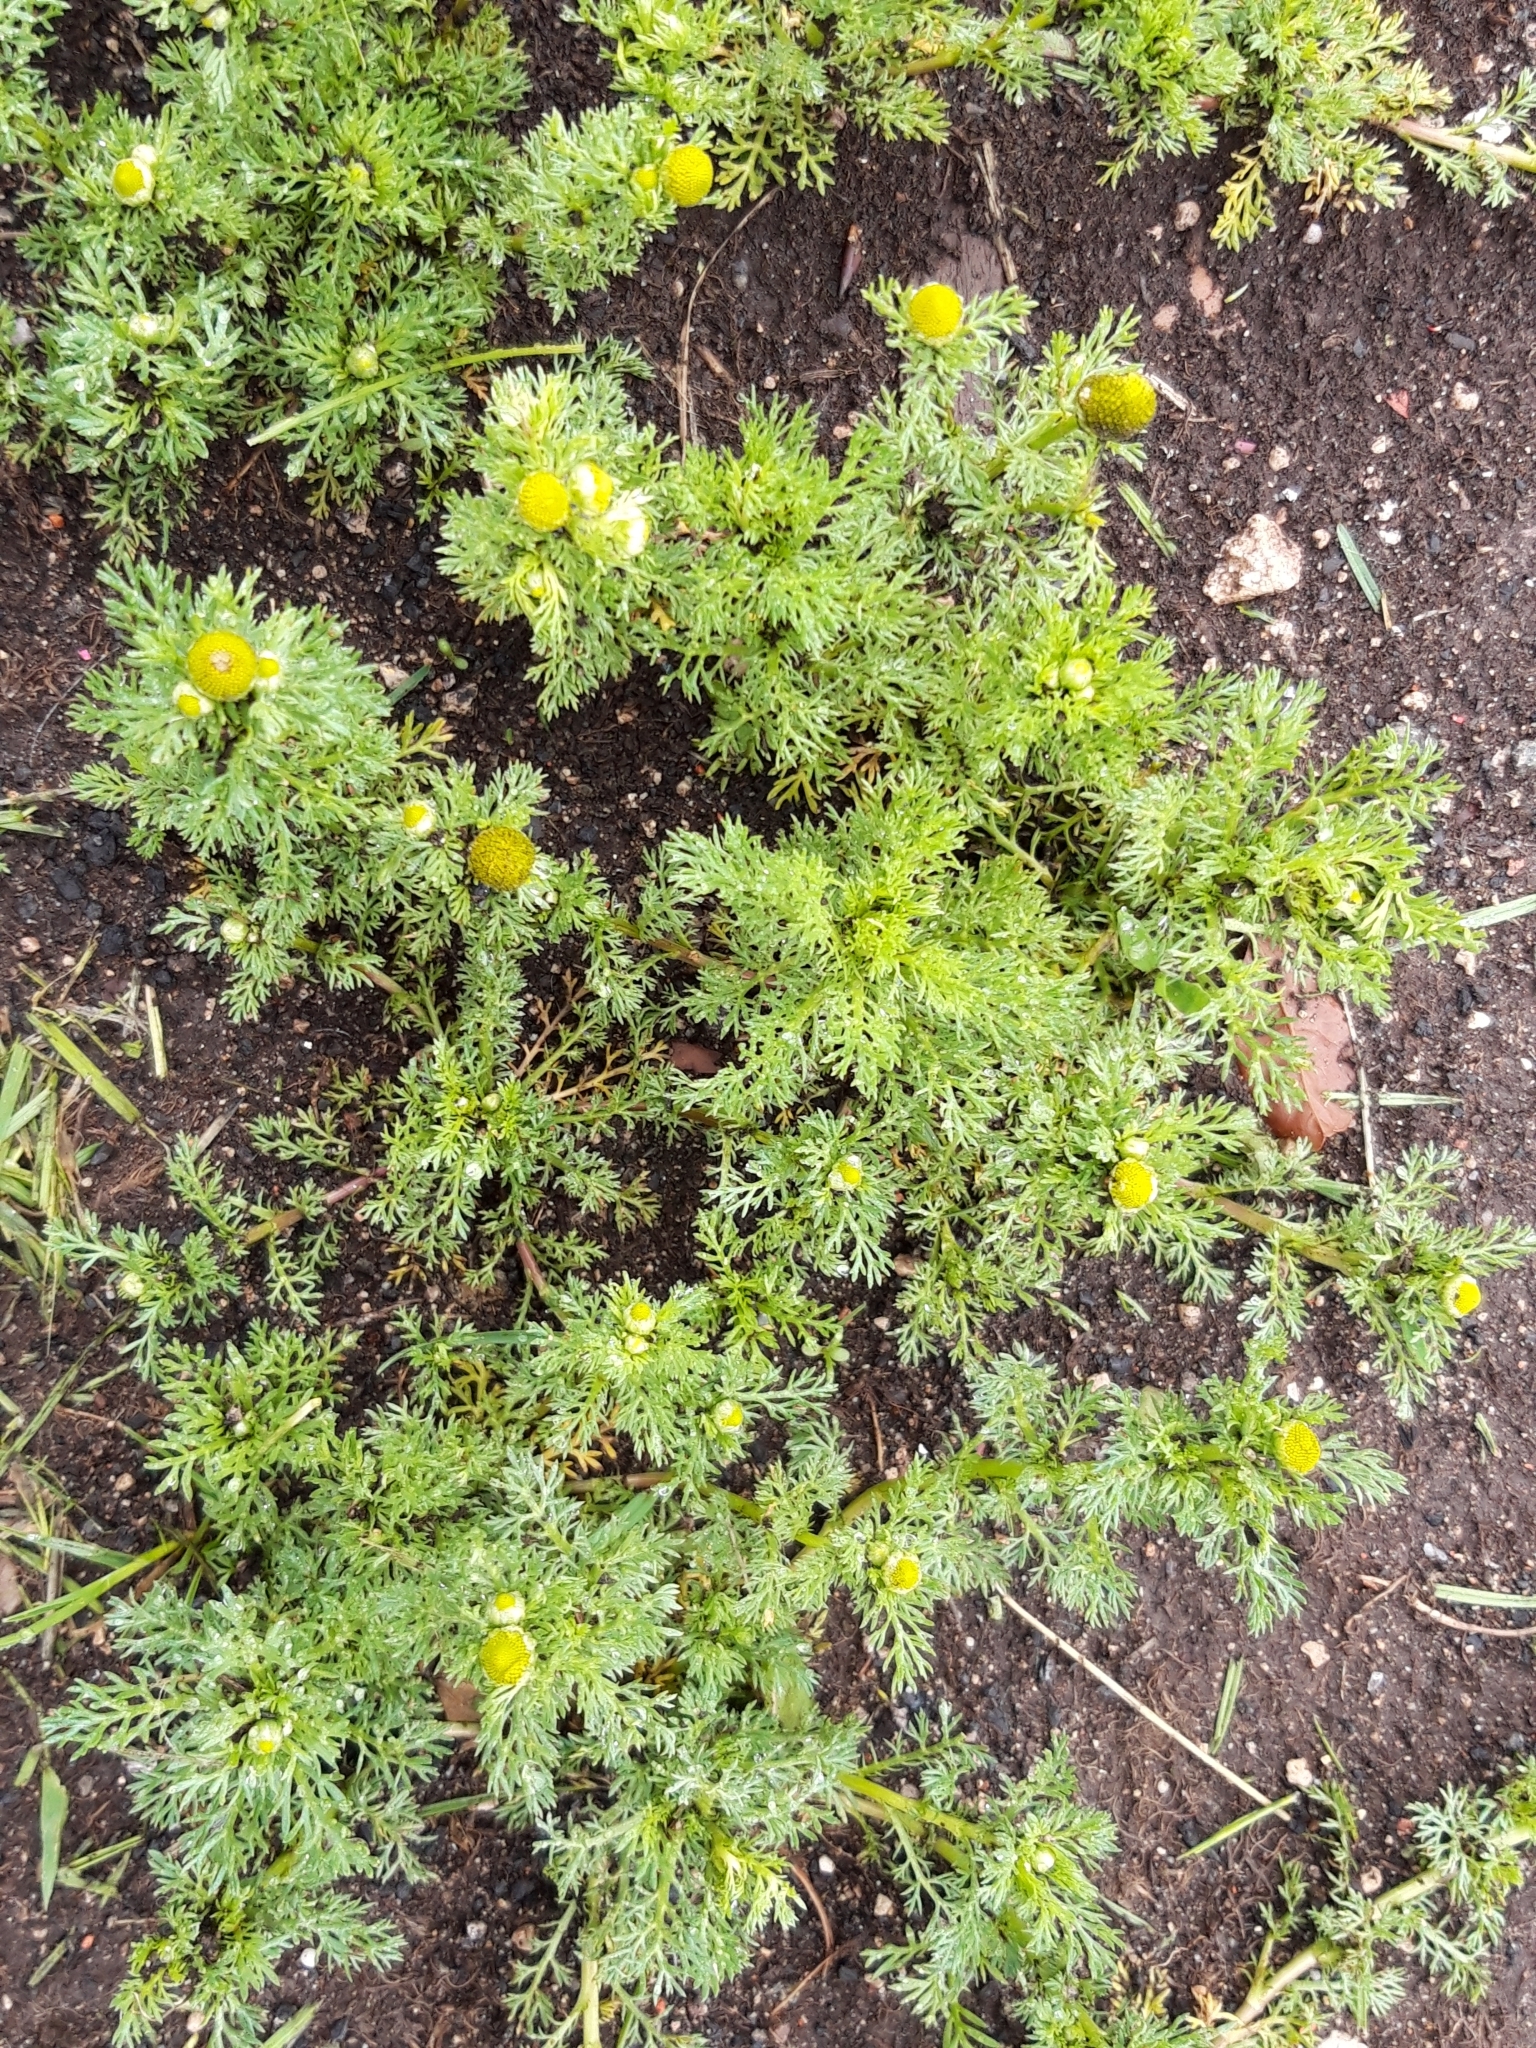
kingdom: Plantae
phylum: Tracheophyta
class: Magnoliopsida
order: Asterales
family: Asteraceae
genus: Matricaria
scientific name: Matricaria discoidea
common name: Disc mayweed
